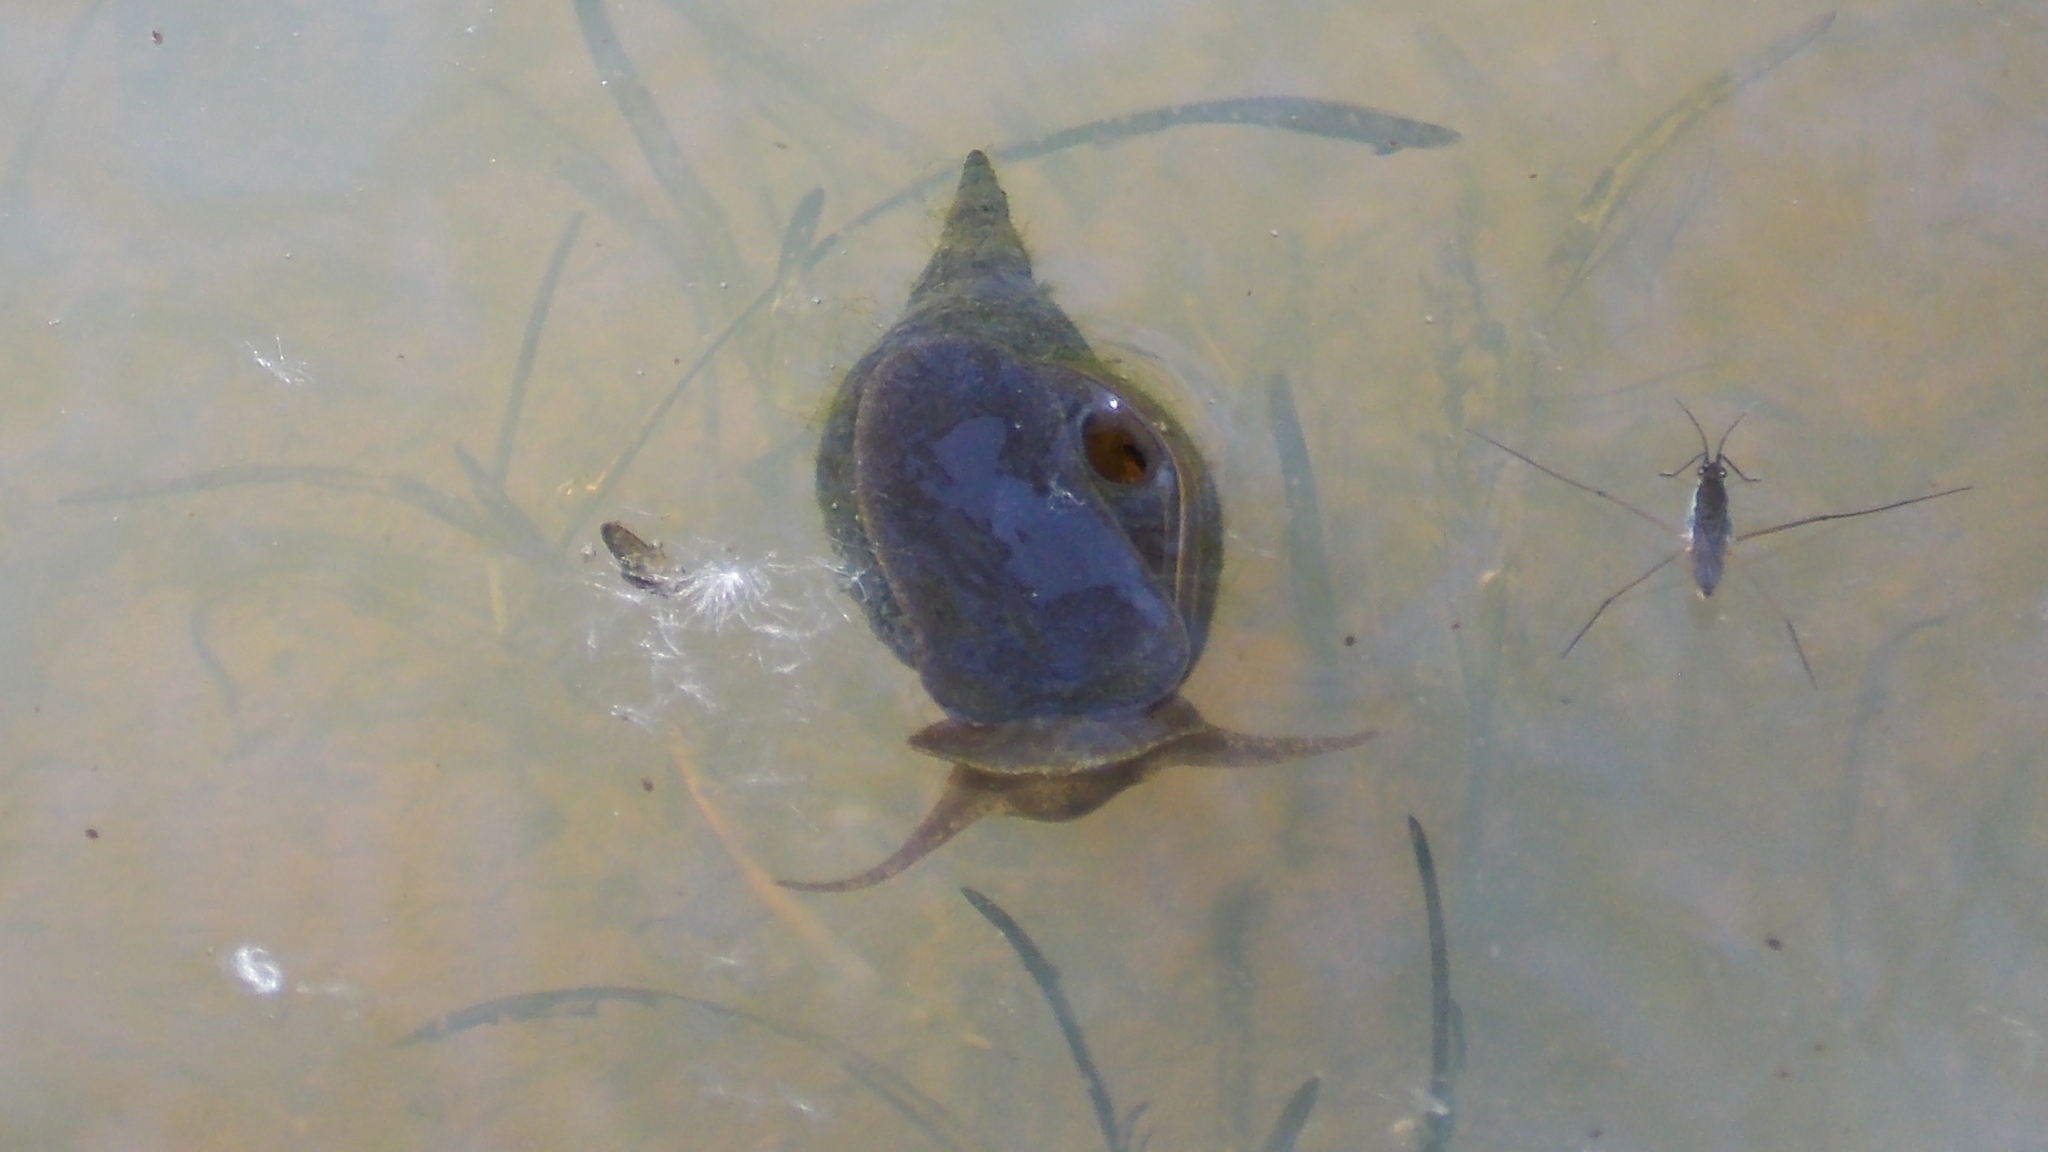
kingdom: Animalia
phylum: Mollusca
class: Gastropoda
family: Lymnaeidae
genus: Lymnaea
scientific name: Lymnaea stagnalis
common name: Great pond snail
